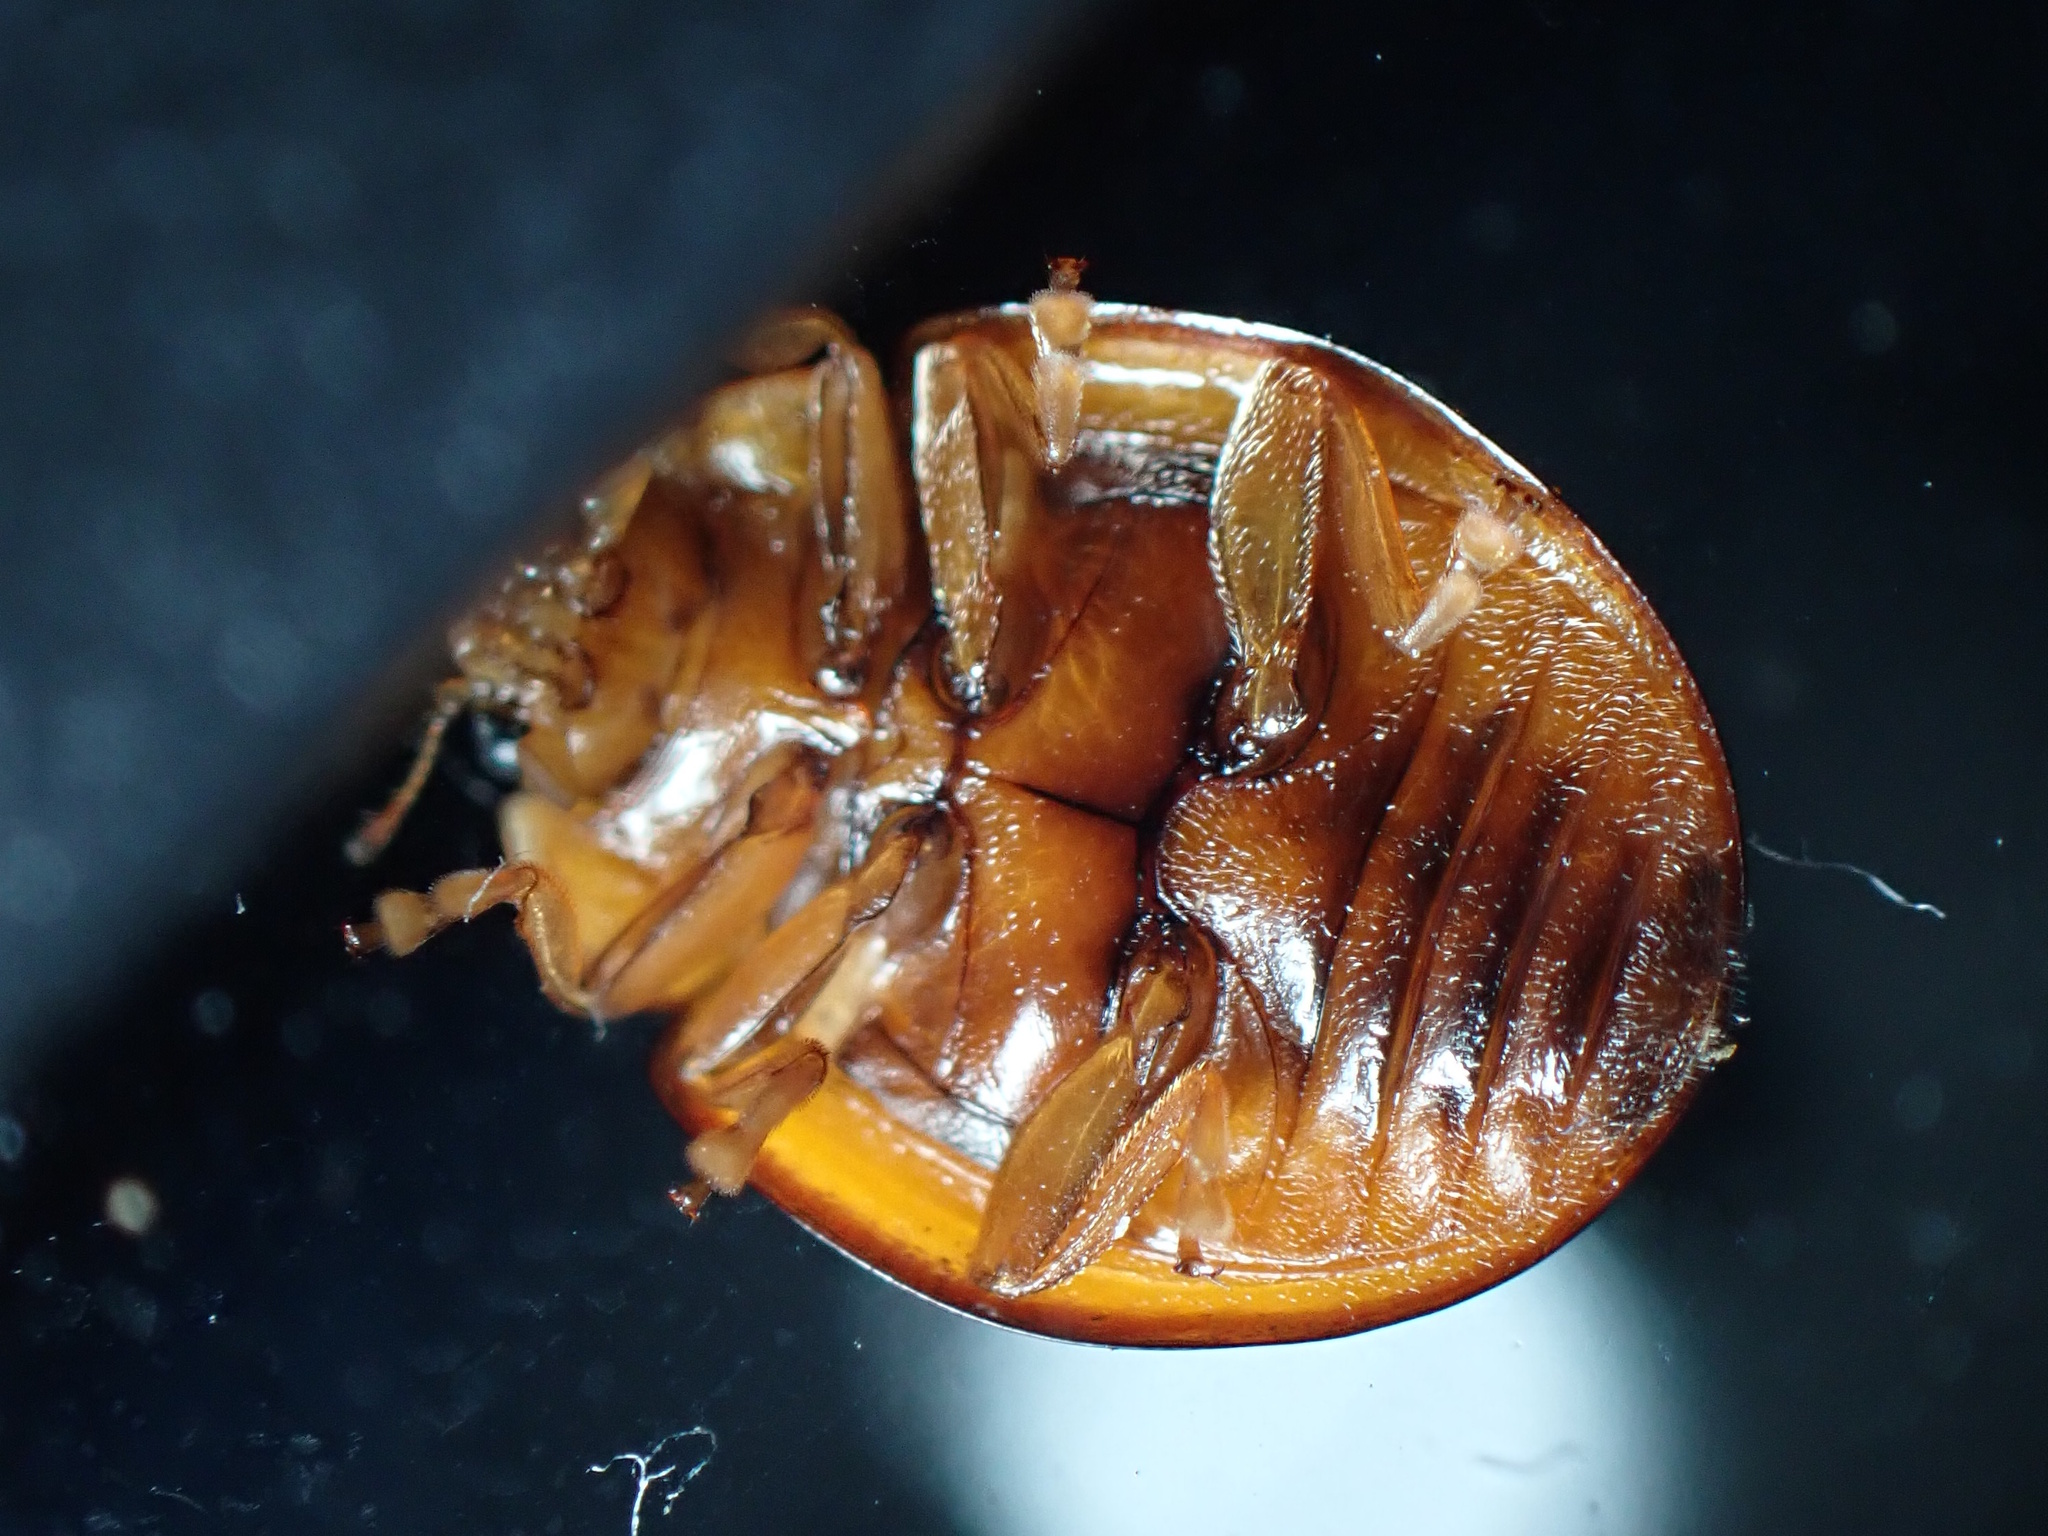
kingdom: Animalia
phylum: Arthropoda
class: Insecta
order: Coleoptera
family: Coccinellidae
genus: Harmonia
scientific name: Harmonia octomaculata
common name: Lady beetle
